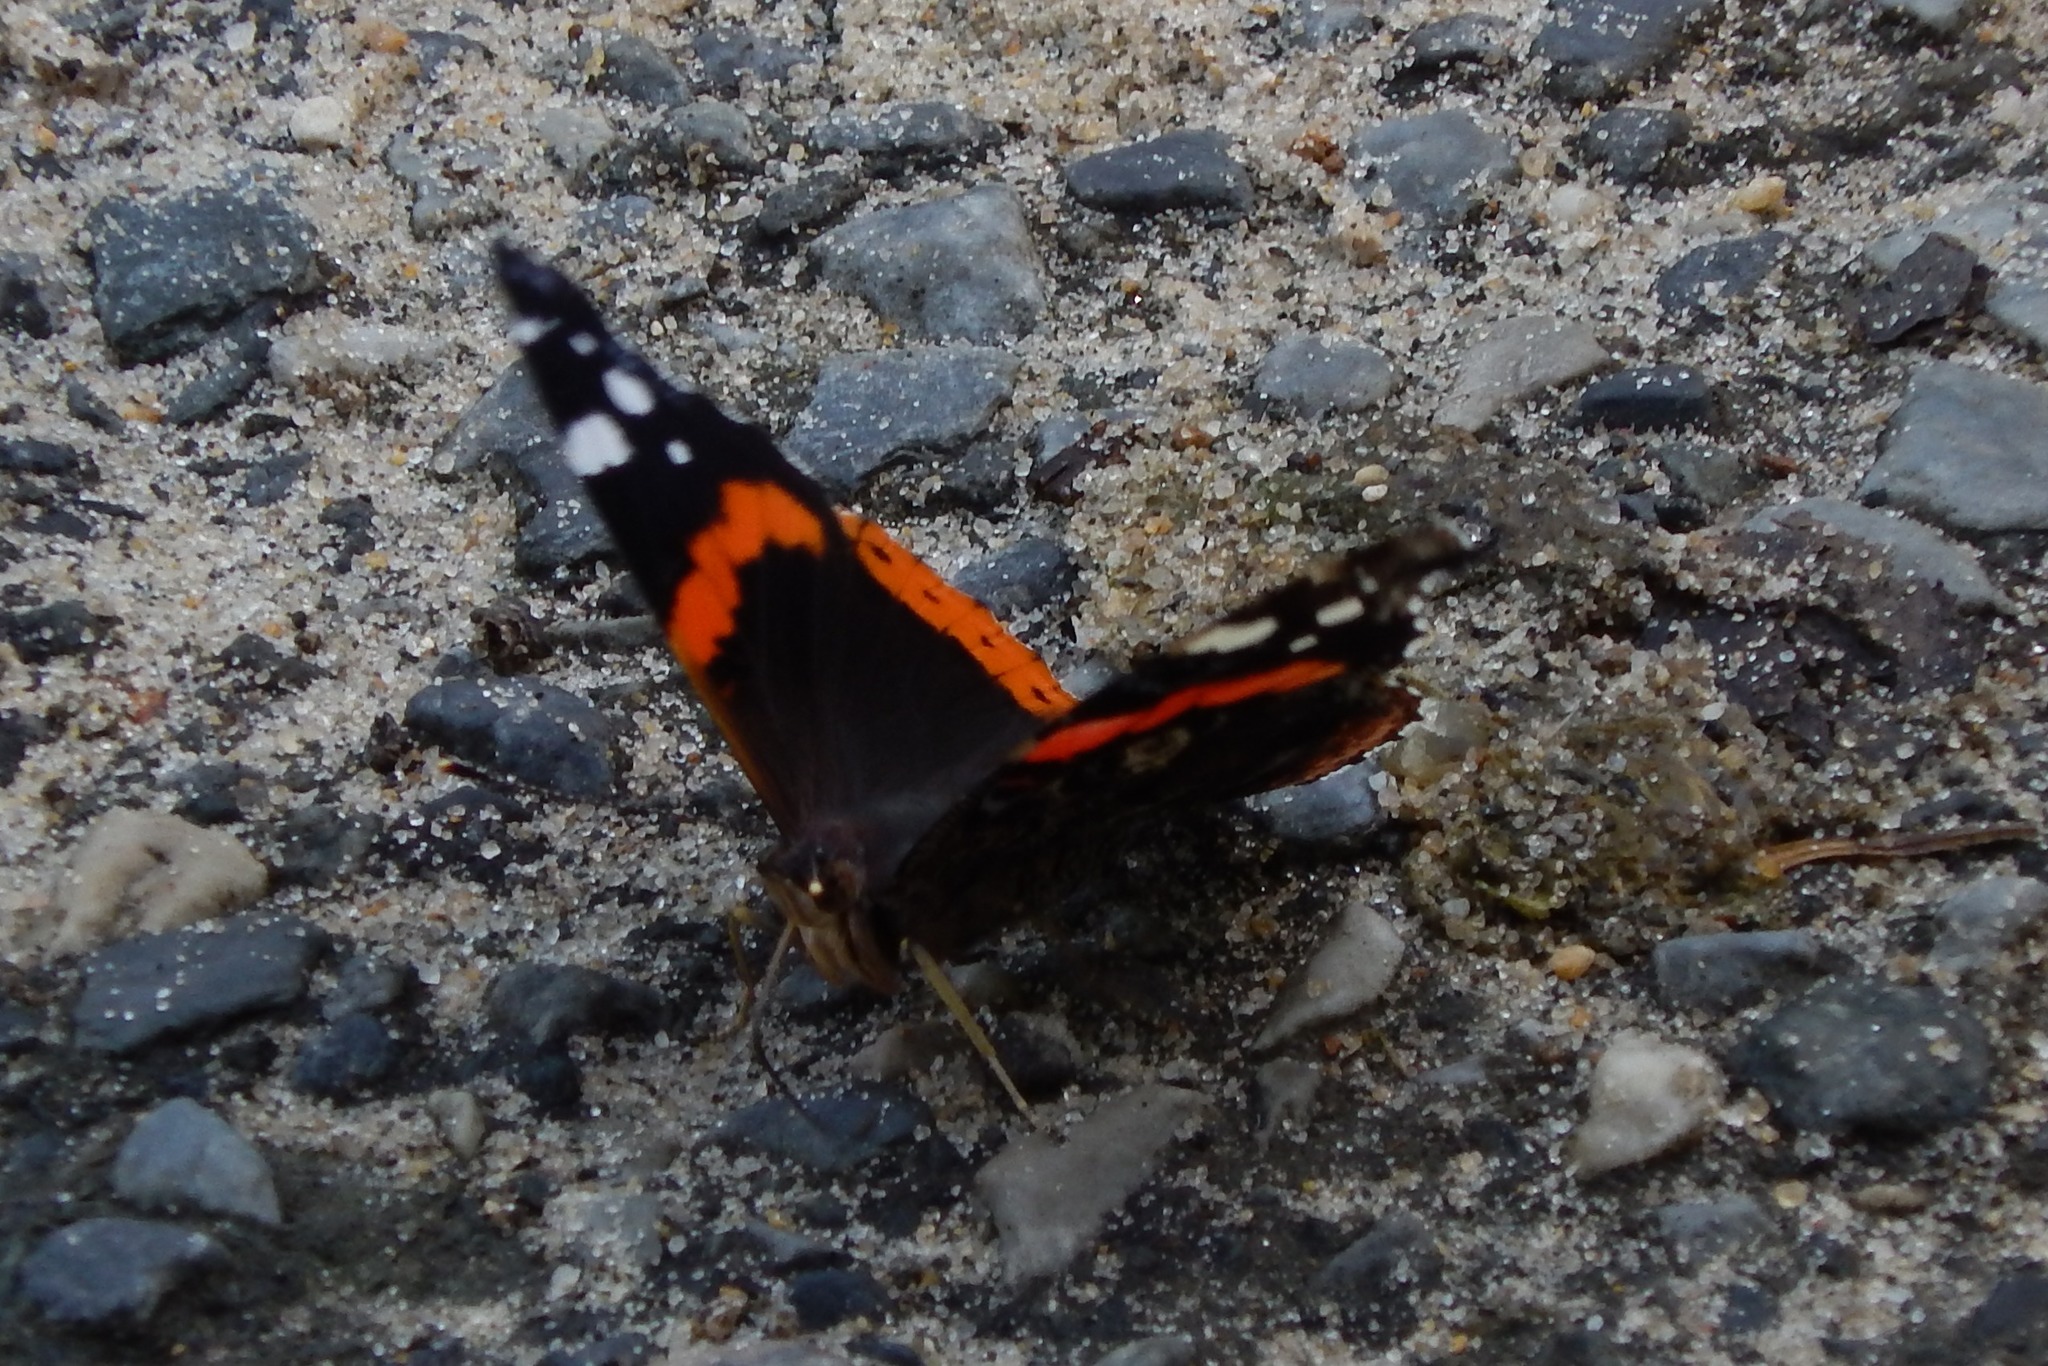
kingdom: Animalia
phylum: Arthropoda
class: Insecta
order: Lepidoptera
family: Nymphalidae
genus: Vanessa
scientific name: Vanessa atalanta
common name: Red admiral
